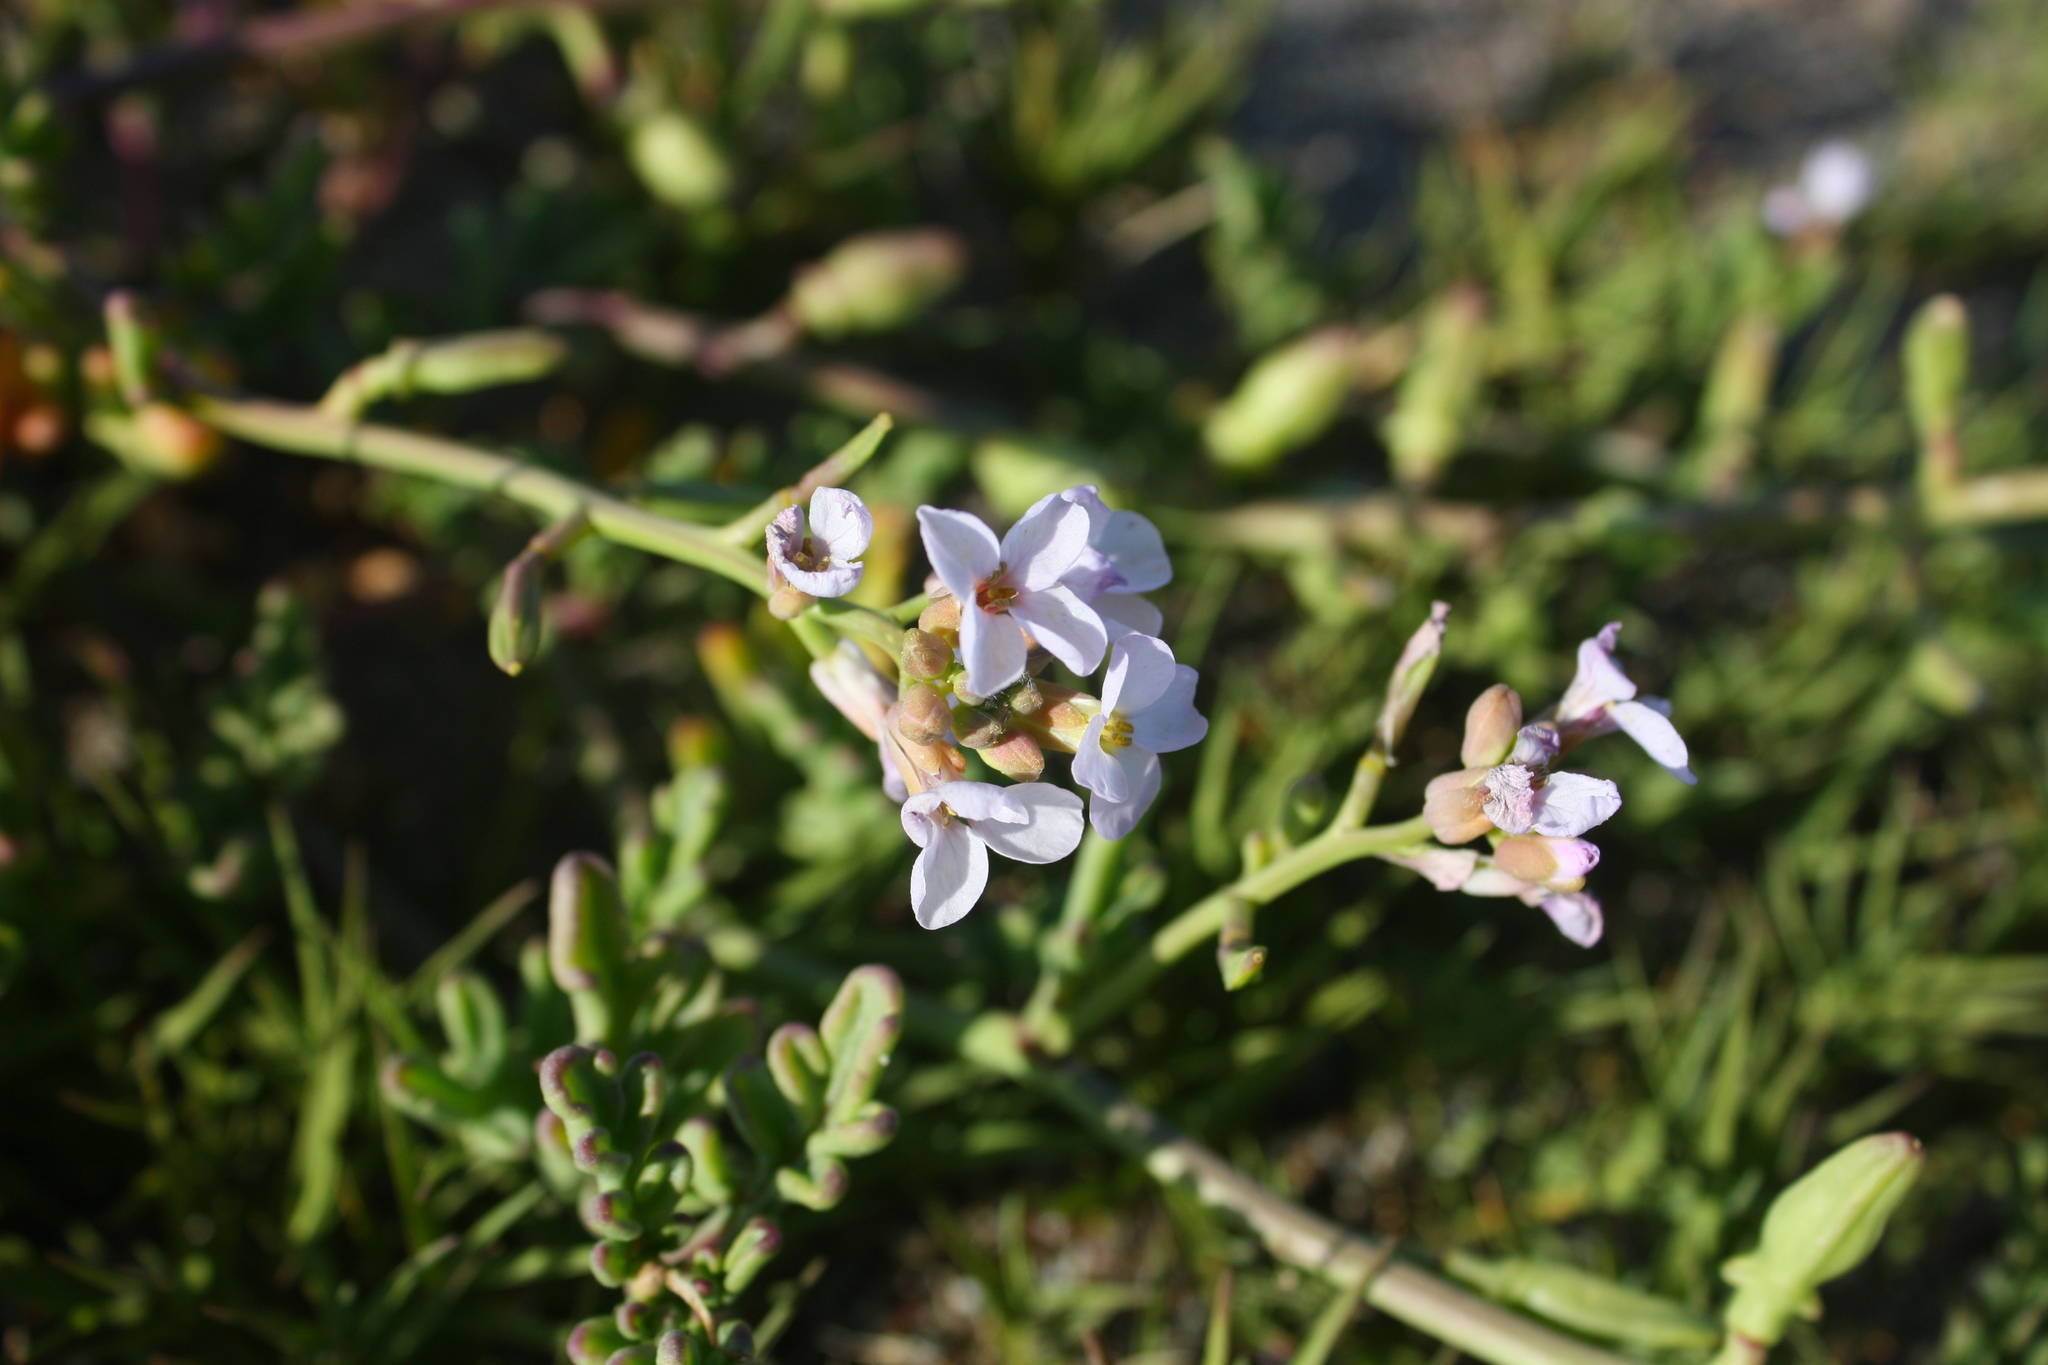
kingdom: Plantae
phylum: Tracheophyta
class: Magnoliopsida
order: Brassicales
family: Brassicaceae
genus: Cakile
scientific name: Cakile maritima
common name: Sea rocket
